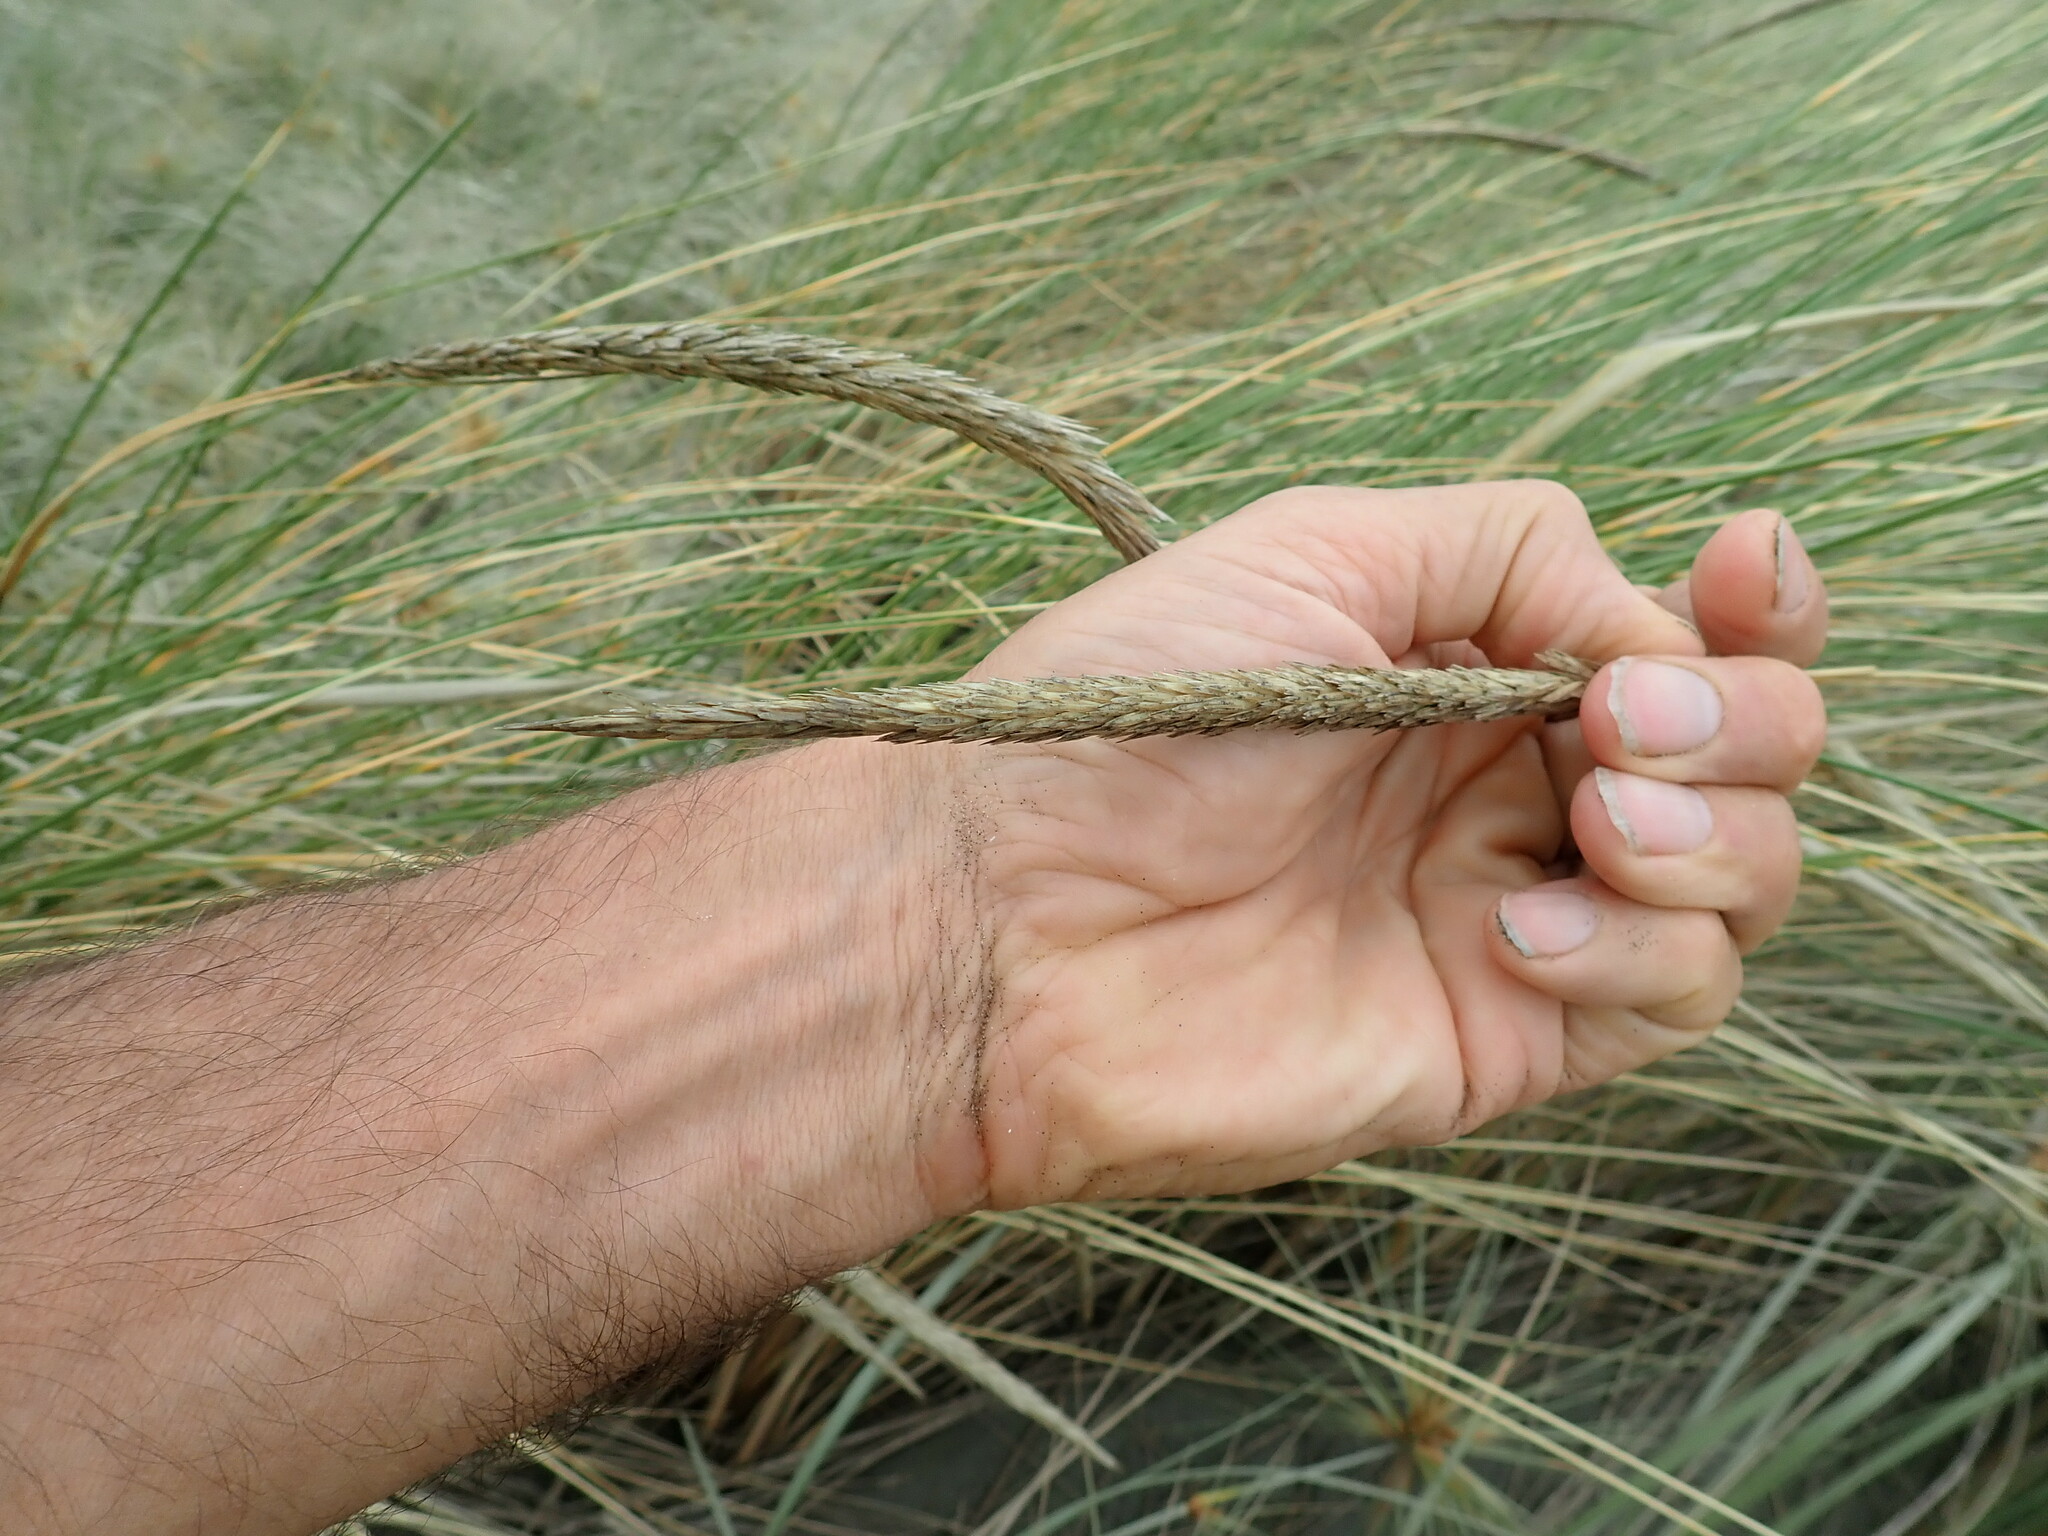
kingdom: Plantae
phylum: Tracheophyta
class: Liliopsida
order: Poales
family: Poaceae
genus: Calamagrostis
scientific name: Calamagrostis arenaria
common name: European beachgrass
